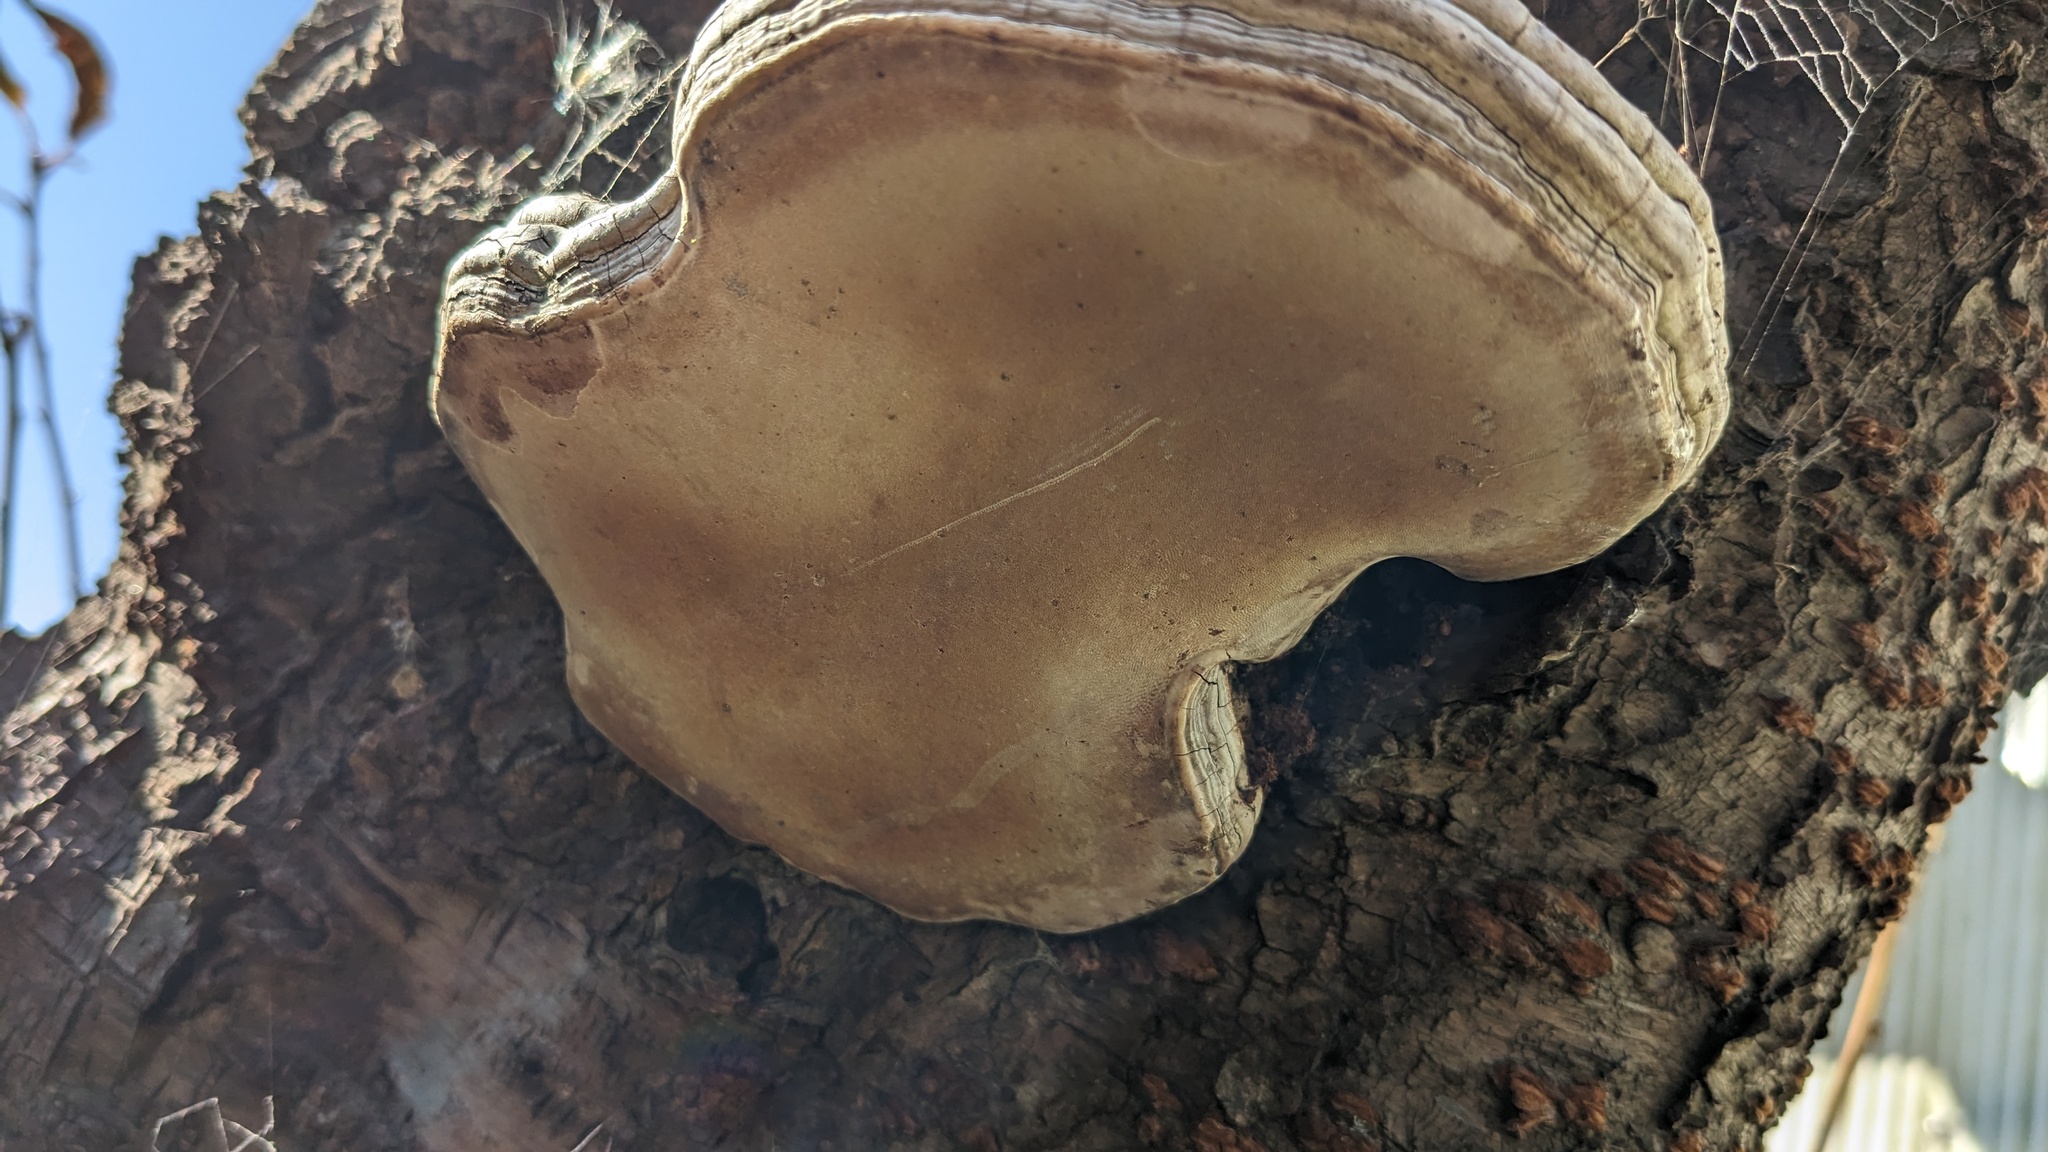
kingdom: Fungi
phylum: Basidiomycota
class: Agaricomycetes
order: Polyporales
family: Polyporaceae
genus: Ganoderma
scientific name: Ganoderma applanatum
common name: Artist's bracket
